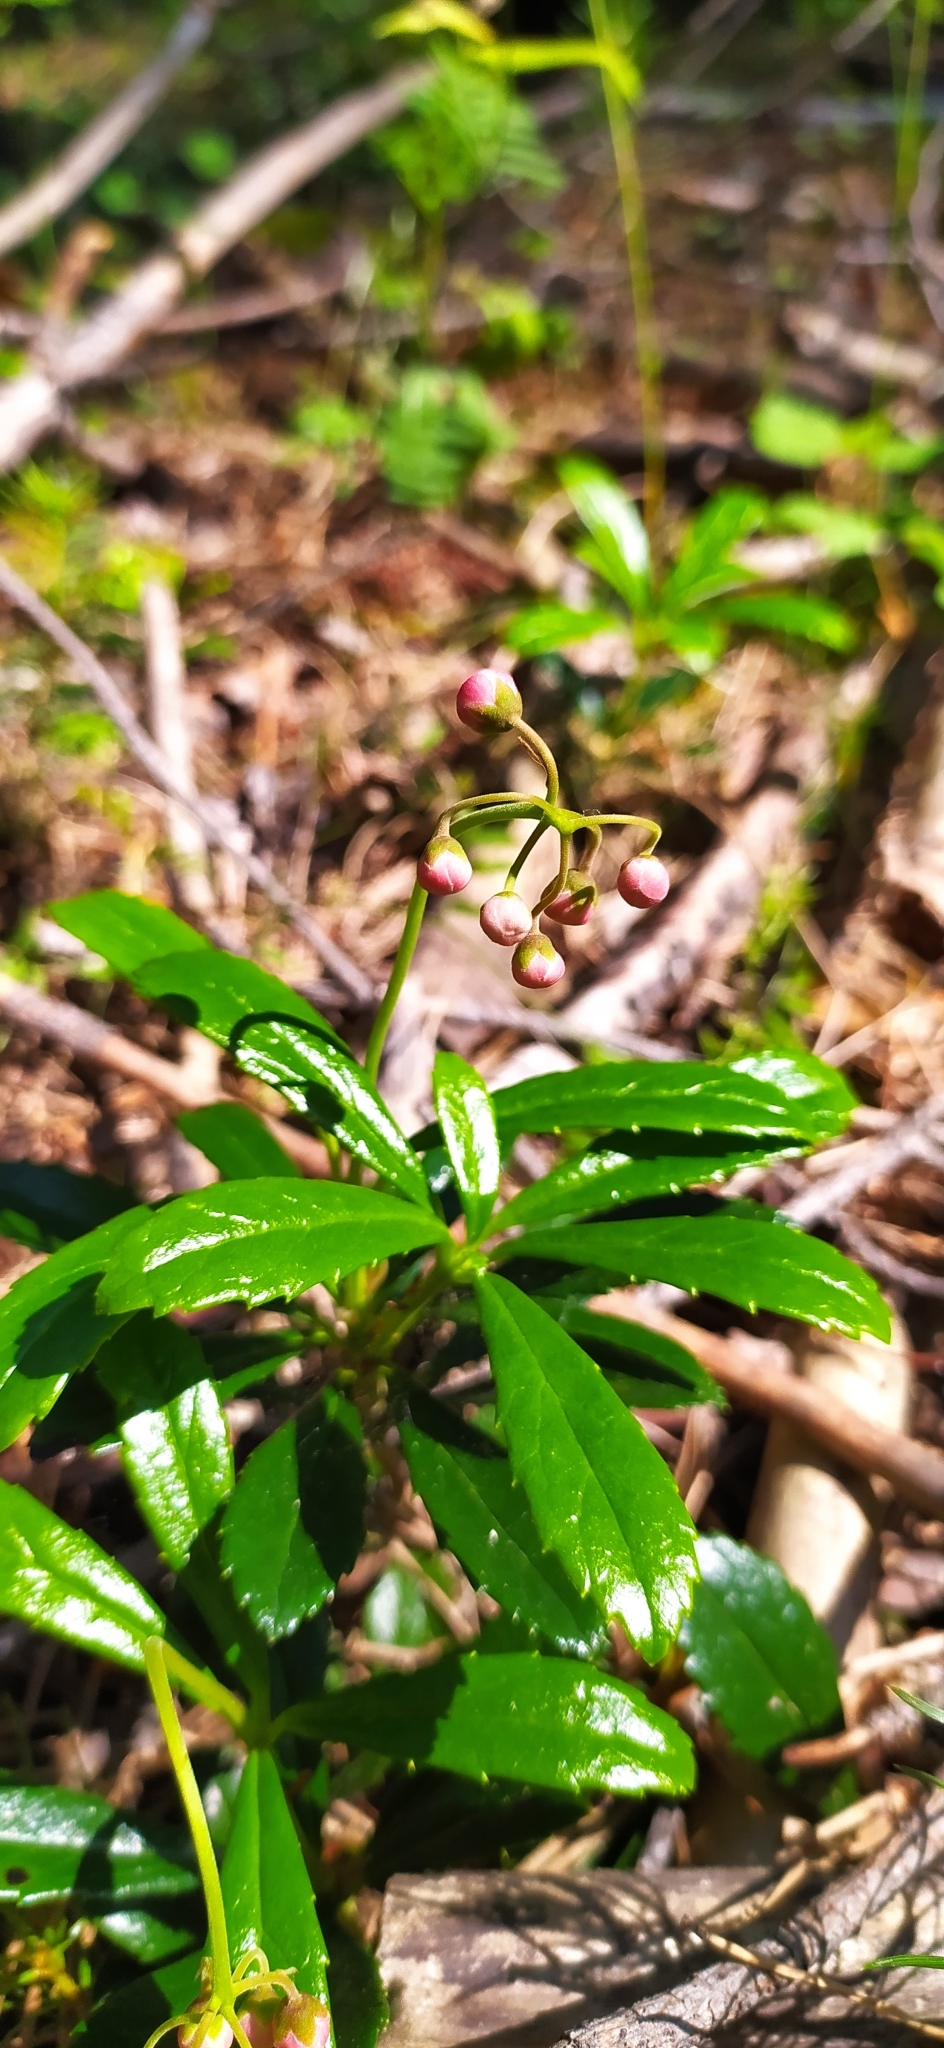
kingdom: Plantae
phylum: Tracheophyta
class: Magnoliopsida
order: Ericales
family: Ericaceae
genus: Chimaphila
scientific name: Chimaphila umbellata
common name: Pipsissewa
